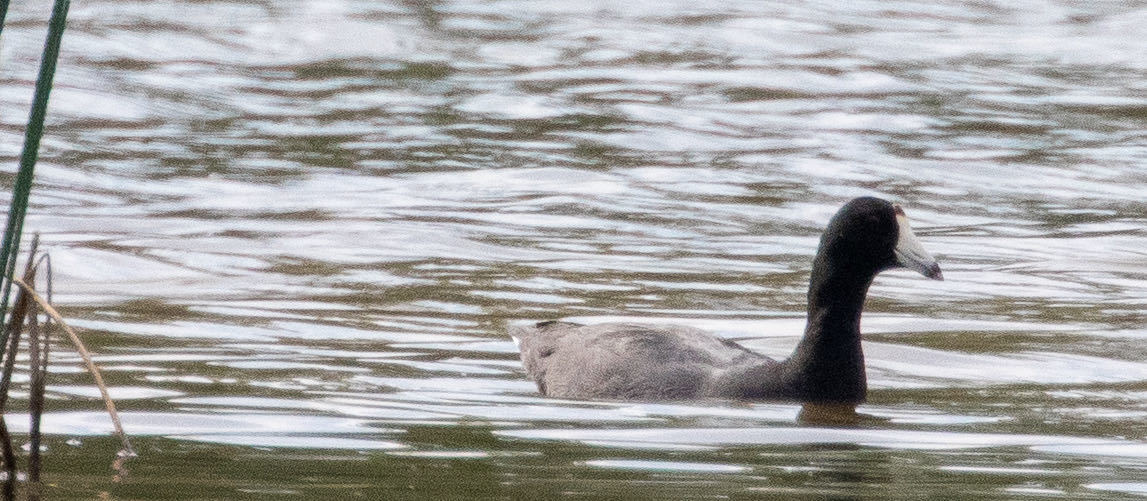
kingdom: Animalia
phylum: Chordata
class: Aves
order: Gruiformes
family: Rallidae
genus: Fulica
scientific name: Fulica americana
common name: American coot
